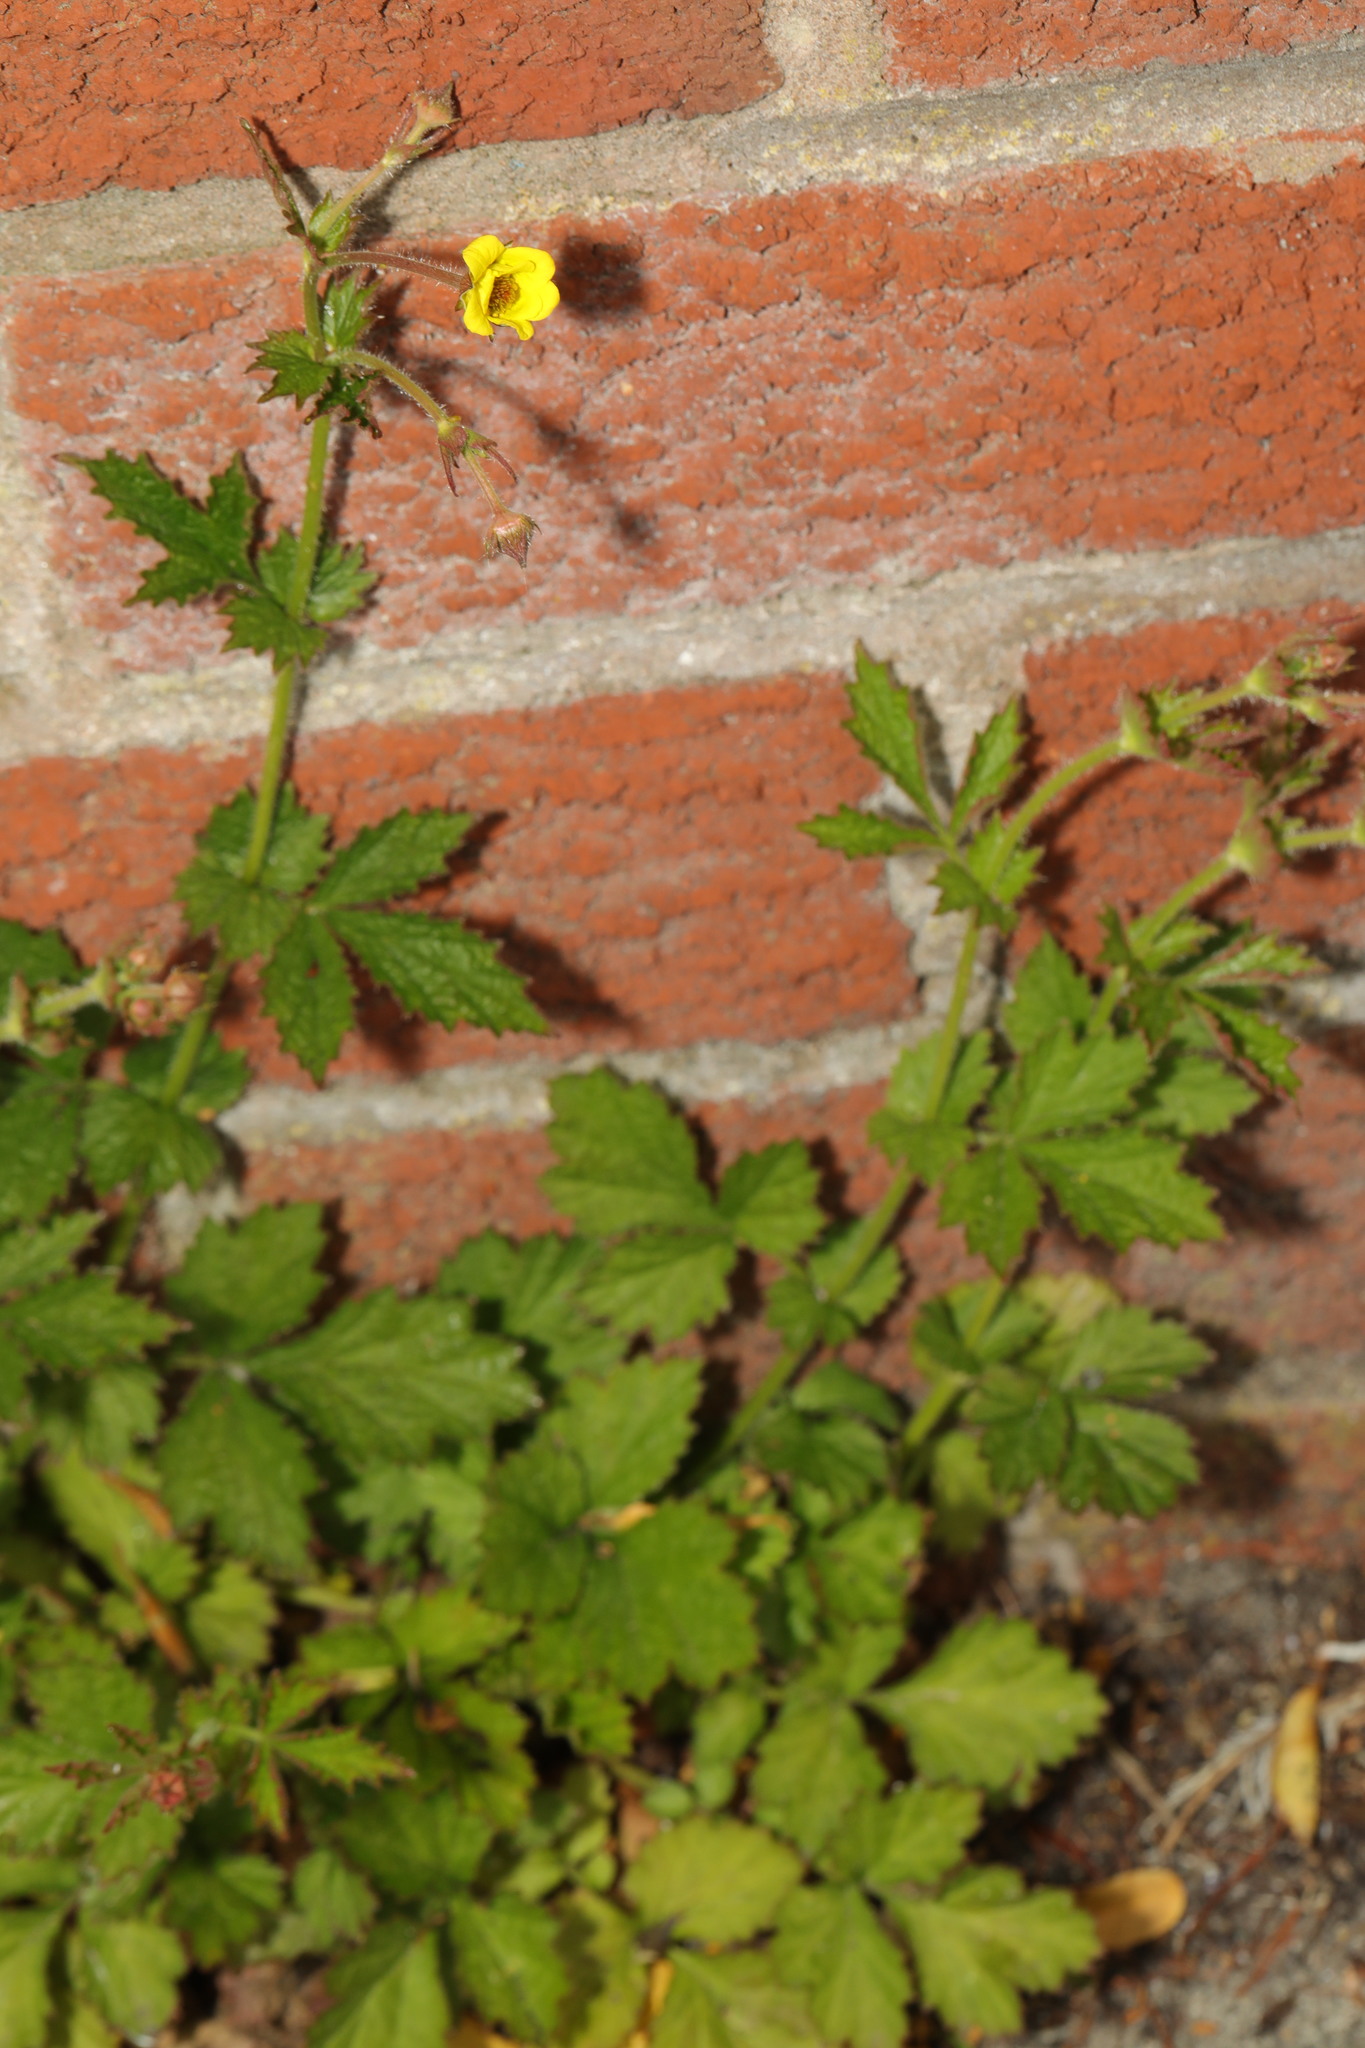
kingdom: Plantae
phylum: Tracheophyta
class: Magnoliopsida
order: Rosales
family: Rosaceae
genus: Geum
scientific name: Geum urbanum
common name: Wood avens
